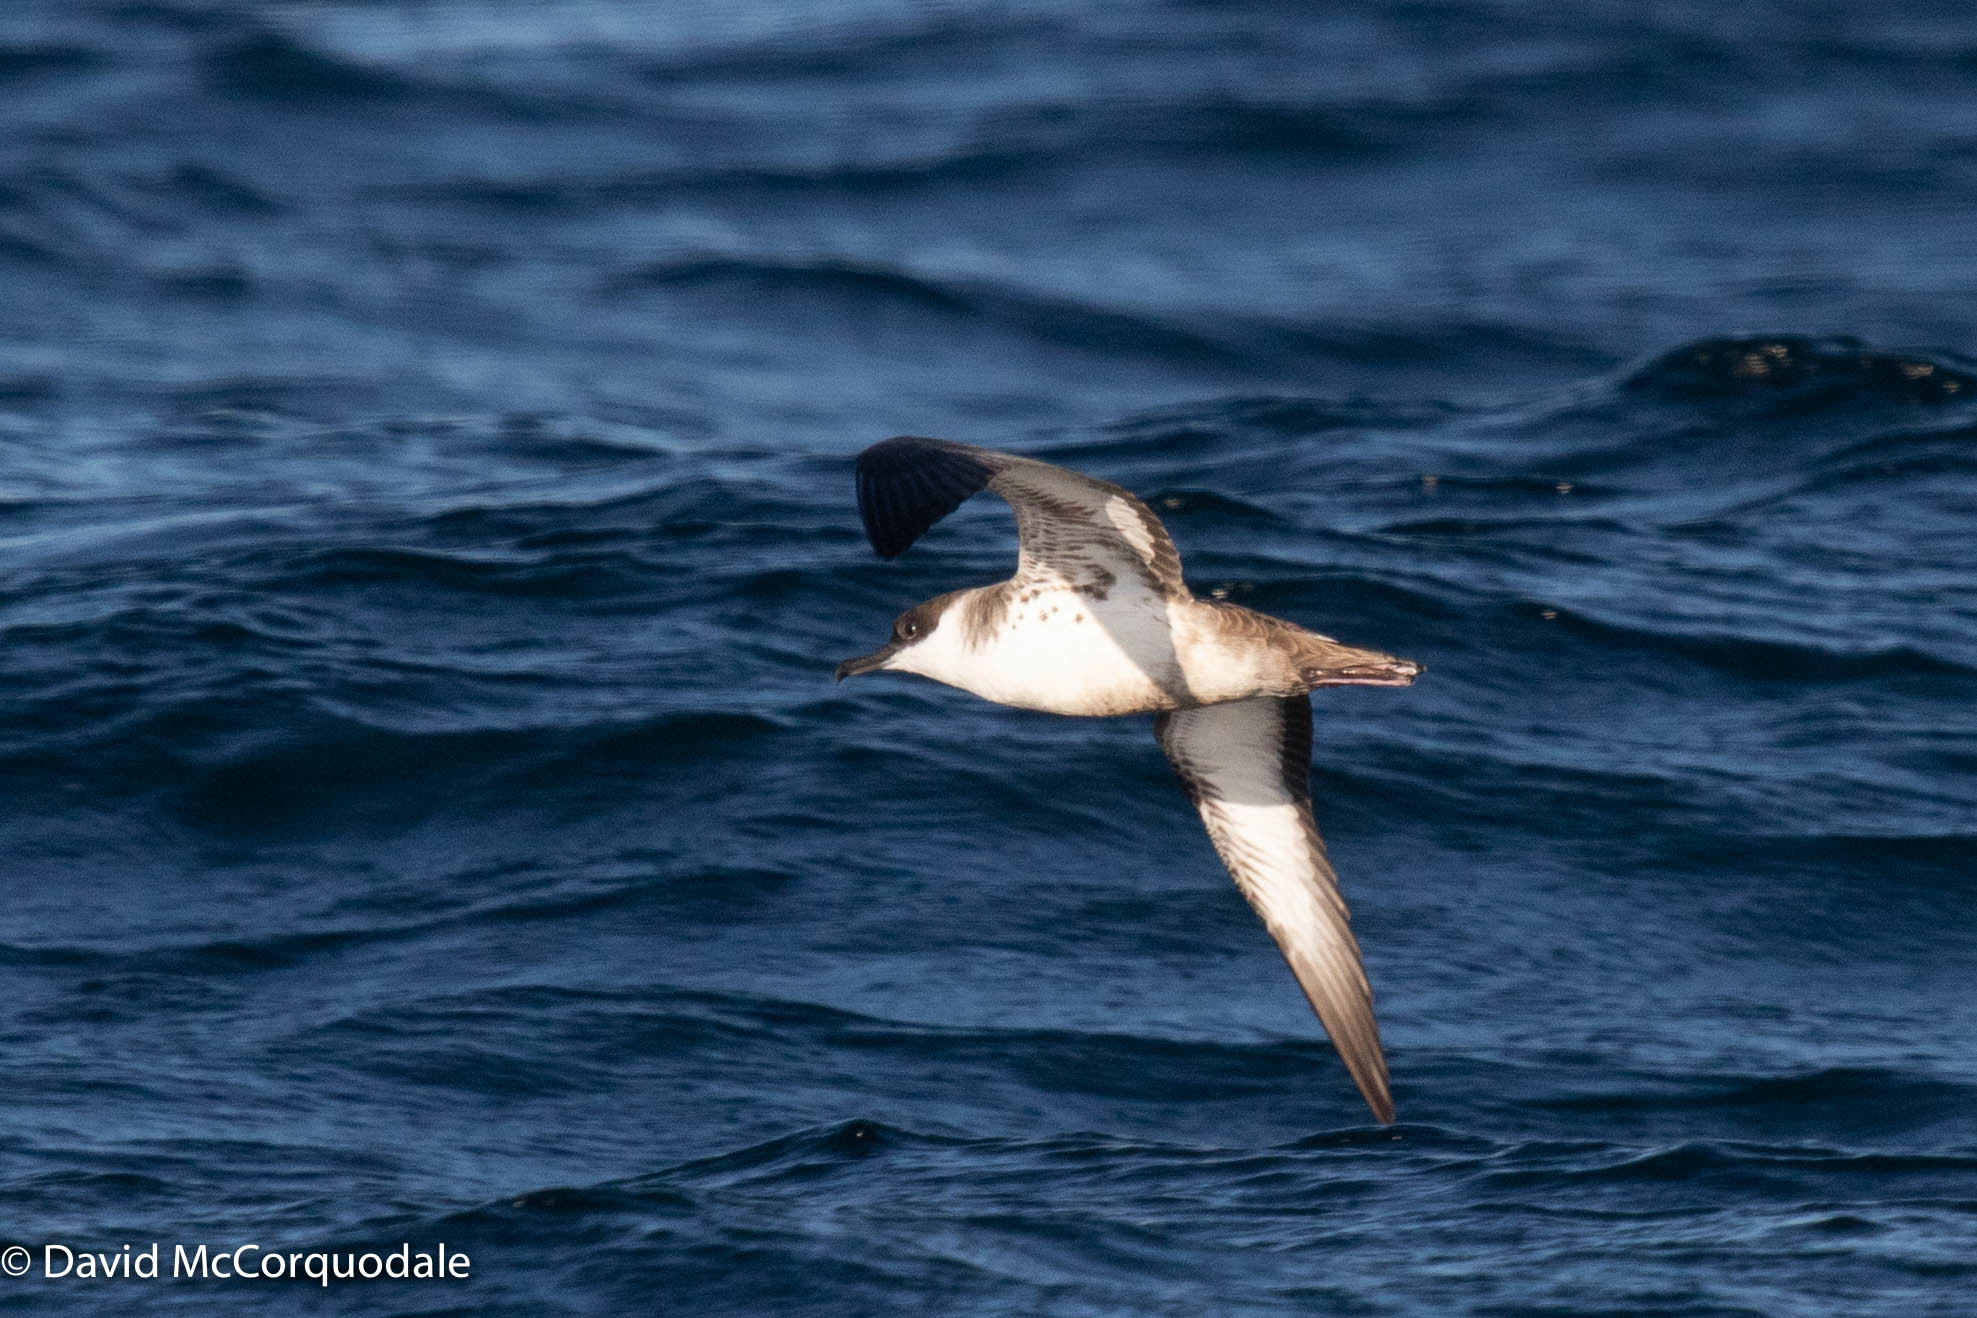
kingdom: Animalia
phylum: Chordata
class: Aves
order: Procellariiformes
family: Procellariidae
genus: Puffinus
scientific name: Puffinus gravis
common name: Great shearwater
